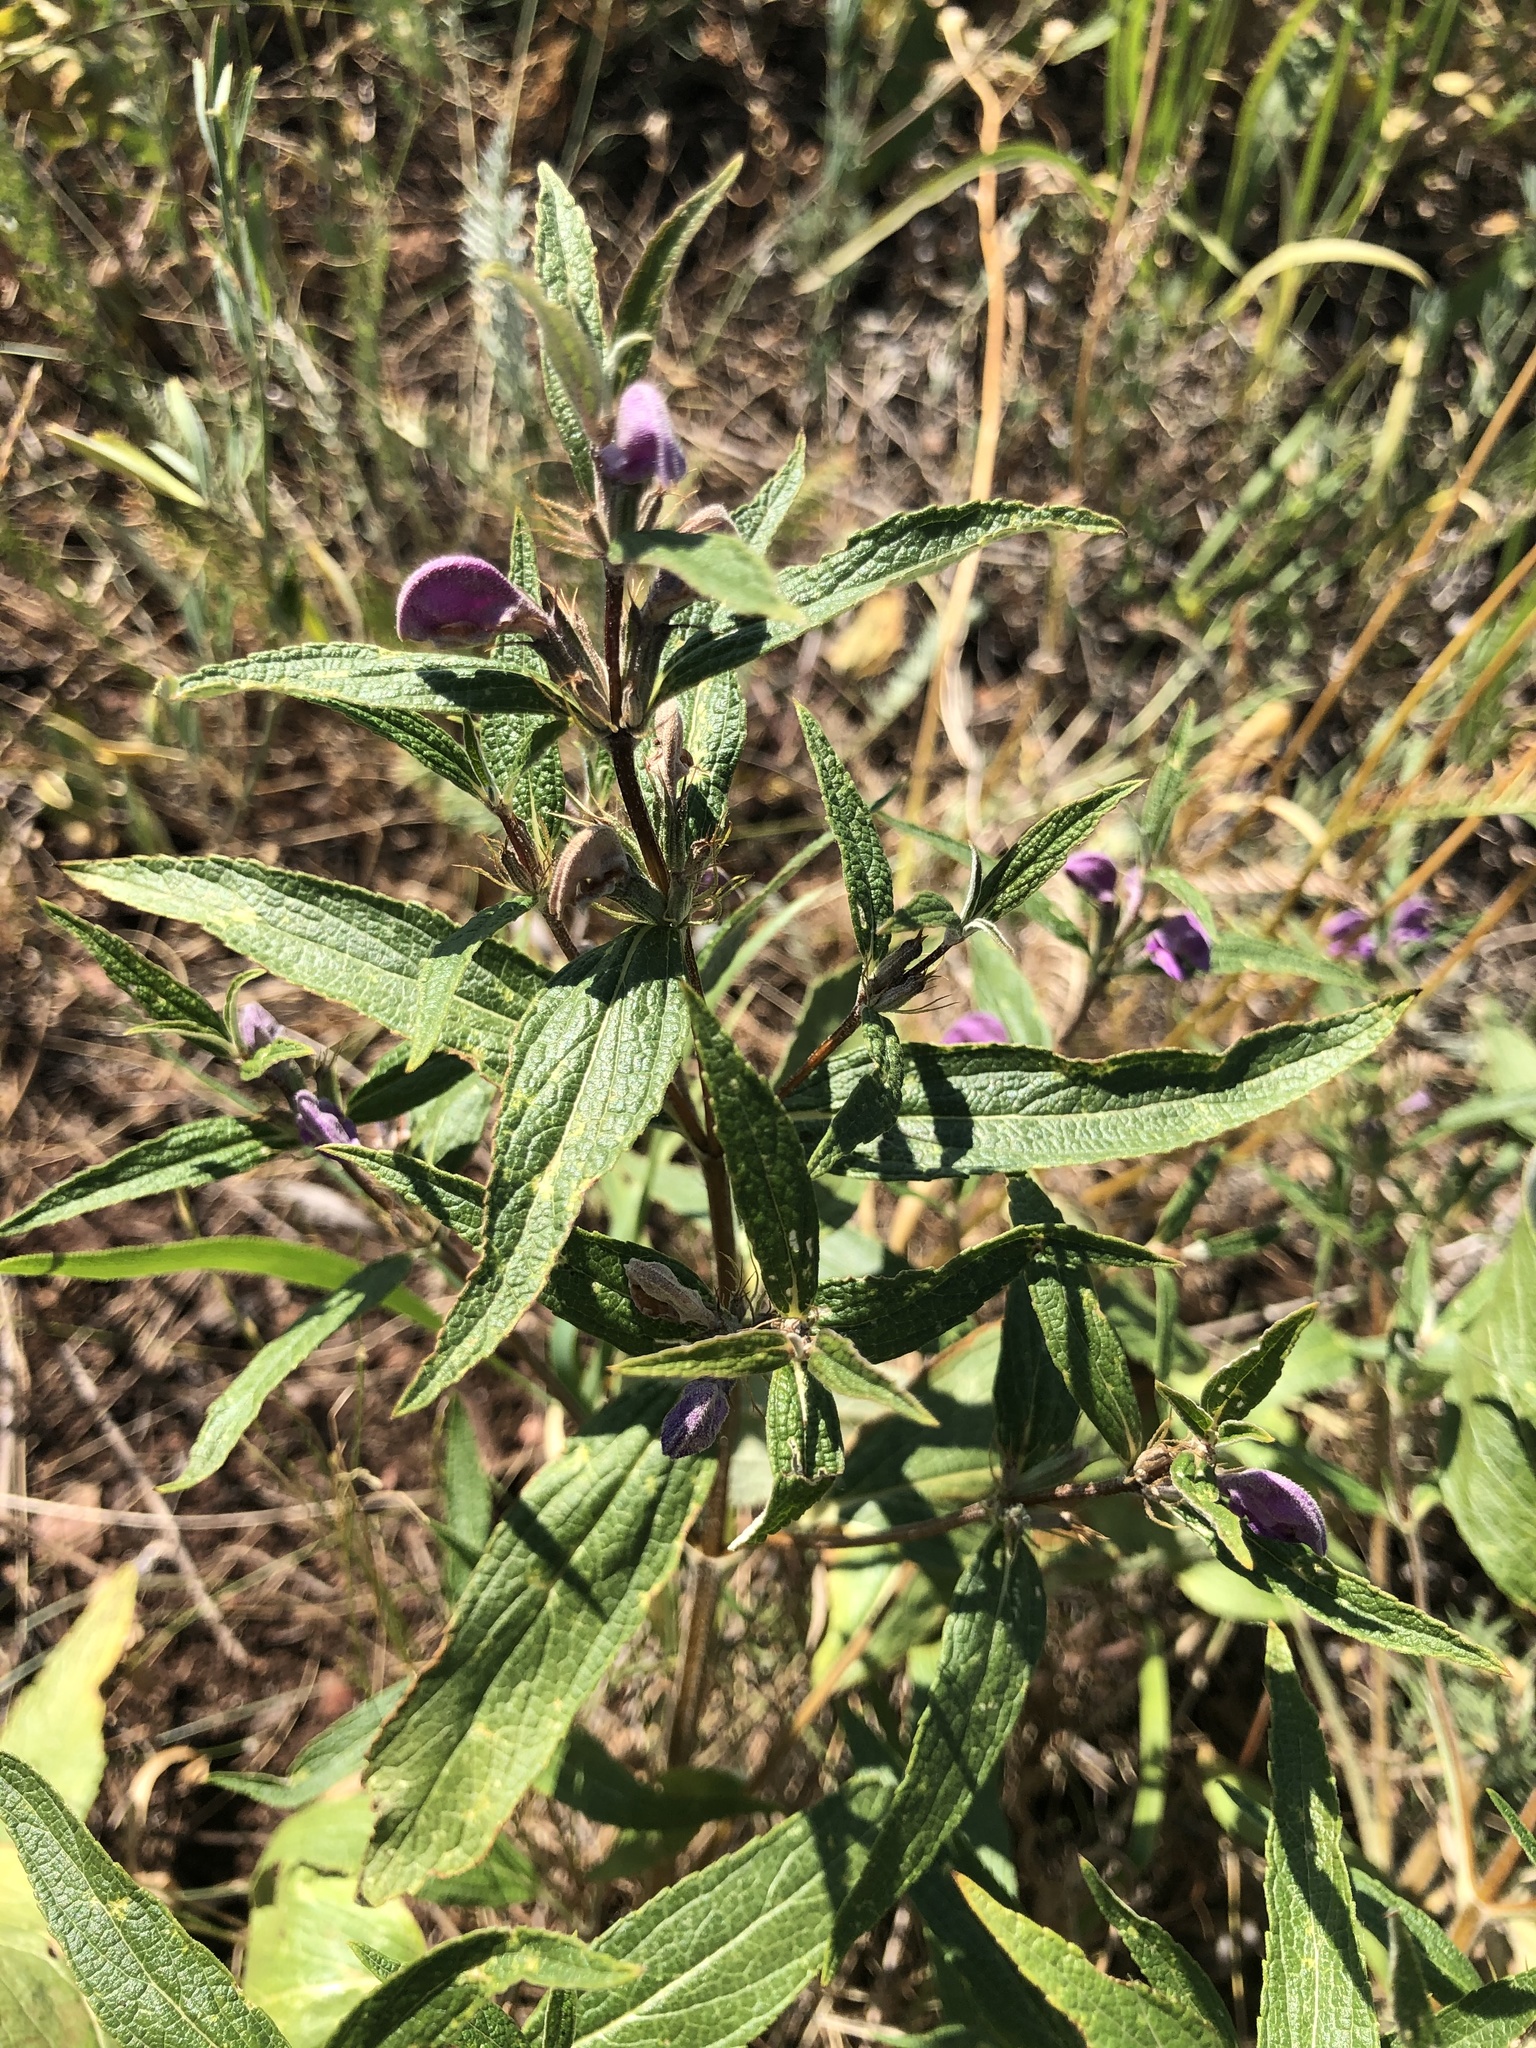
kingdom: Plantae
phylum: Tracheophyta
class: Magnoliopsida
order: Lamiales
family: Lamiaceae
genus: Phlomis
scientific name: Phlomis herba-venti
